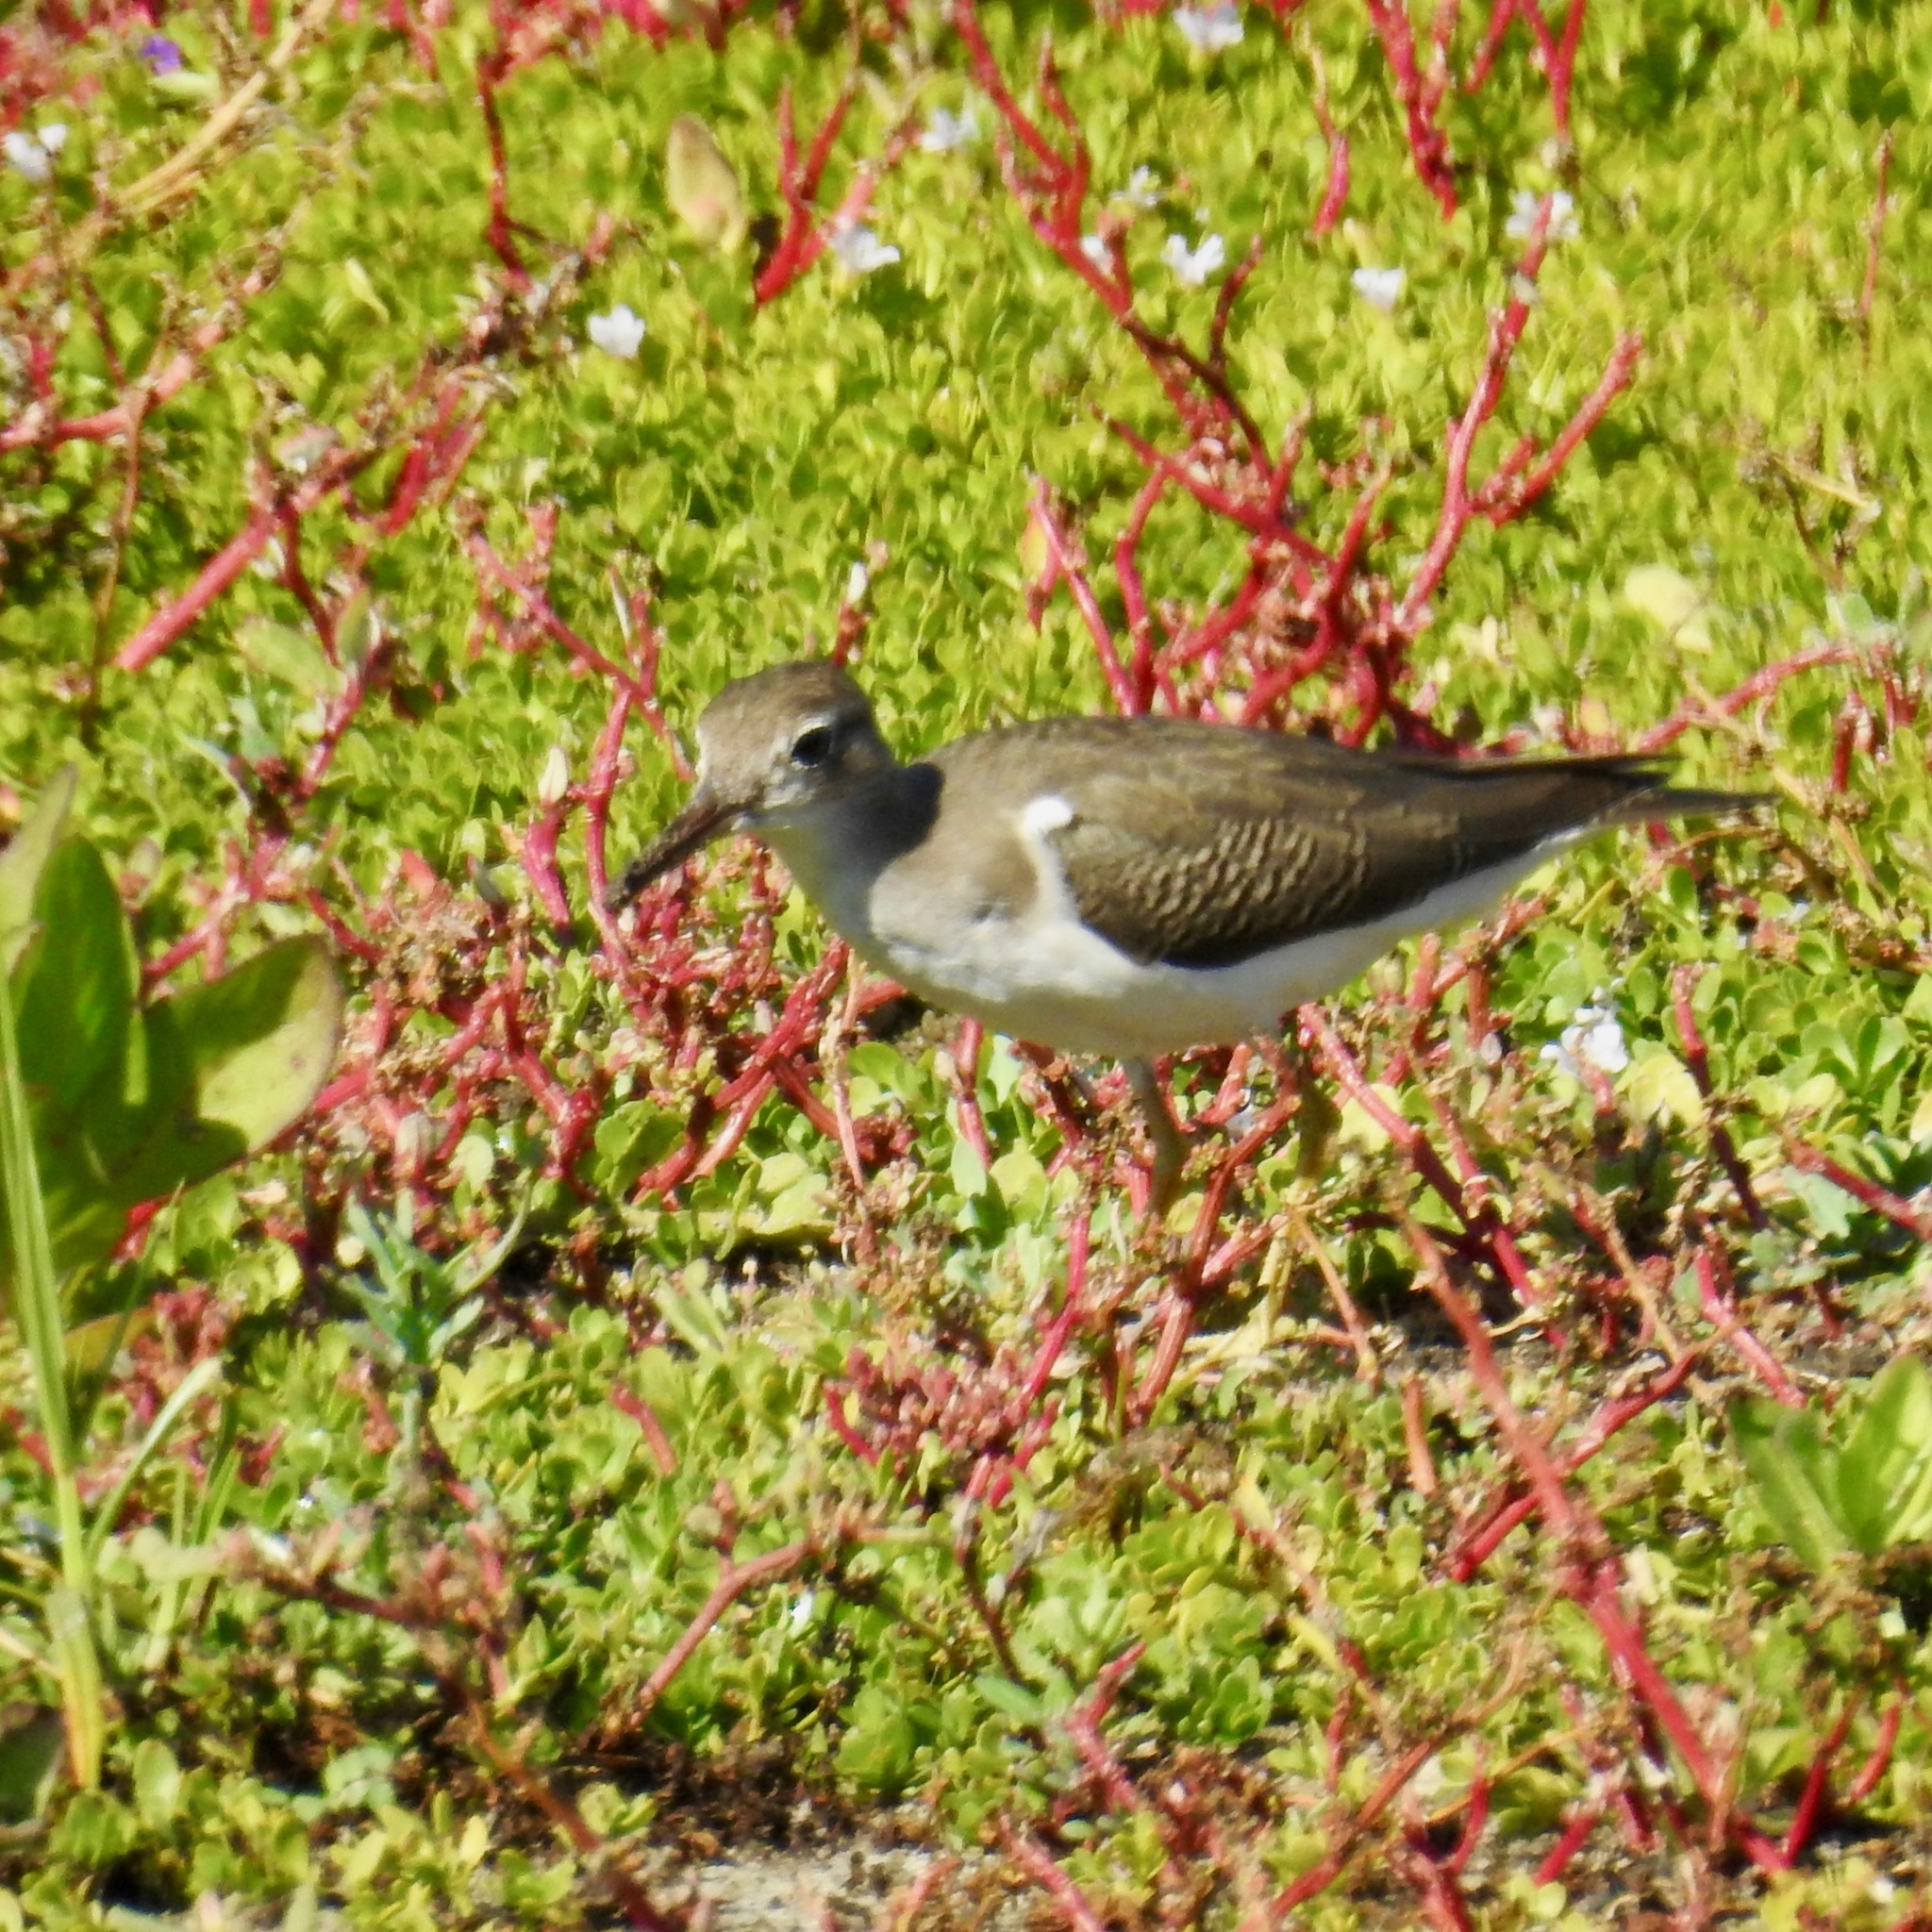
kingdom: Animalia
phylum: Chordata
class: Aves
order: Charadriiformes
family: Scolopacidae
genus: Actitis
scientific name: Actitis macularius
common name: Spotted sandpiper
